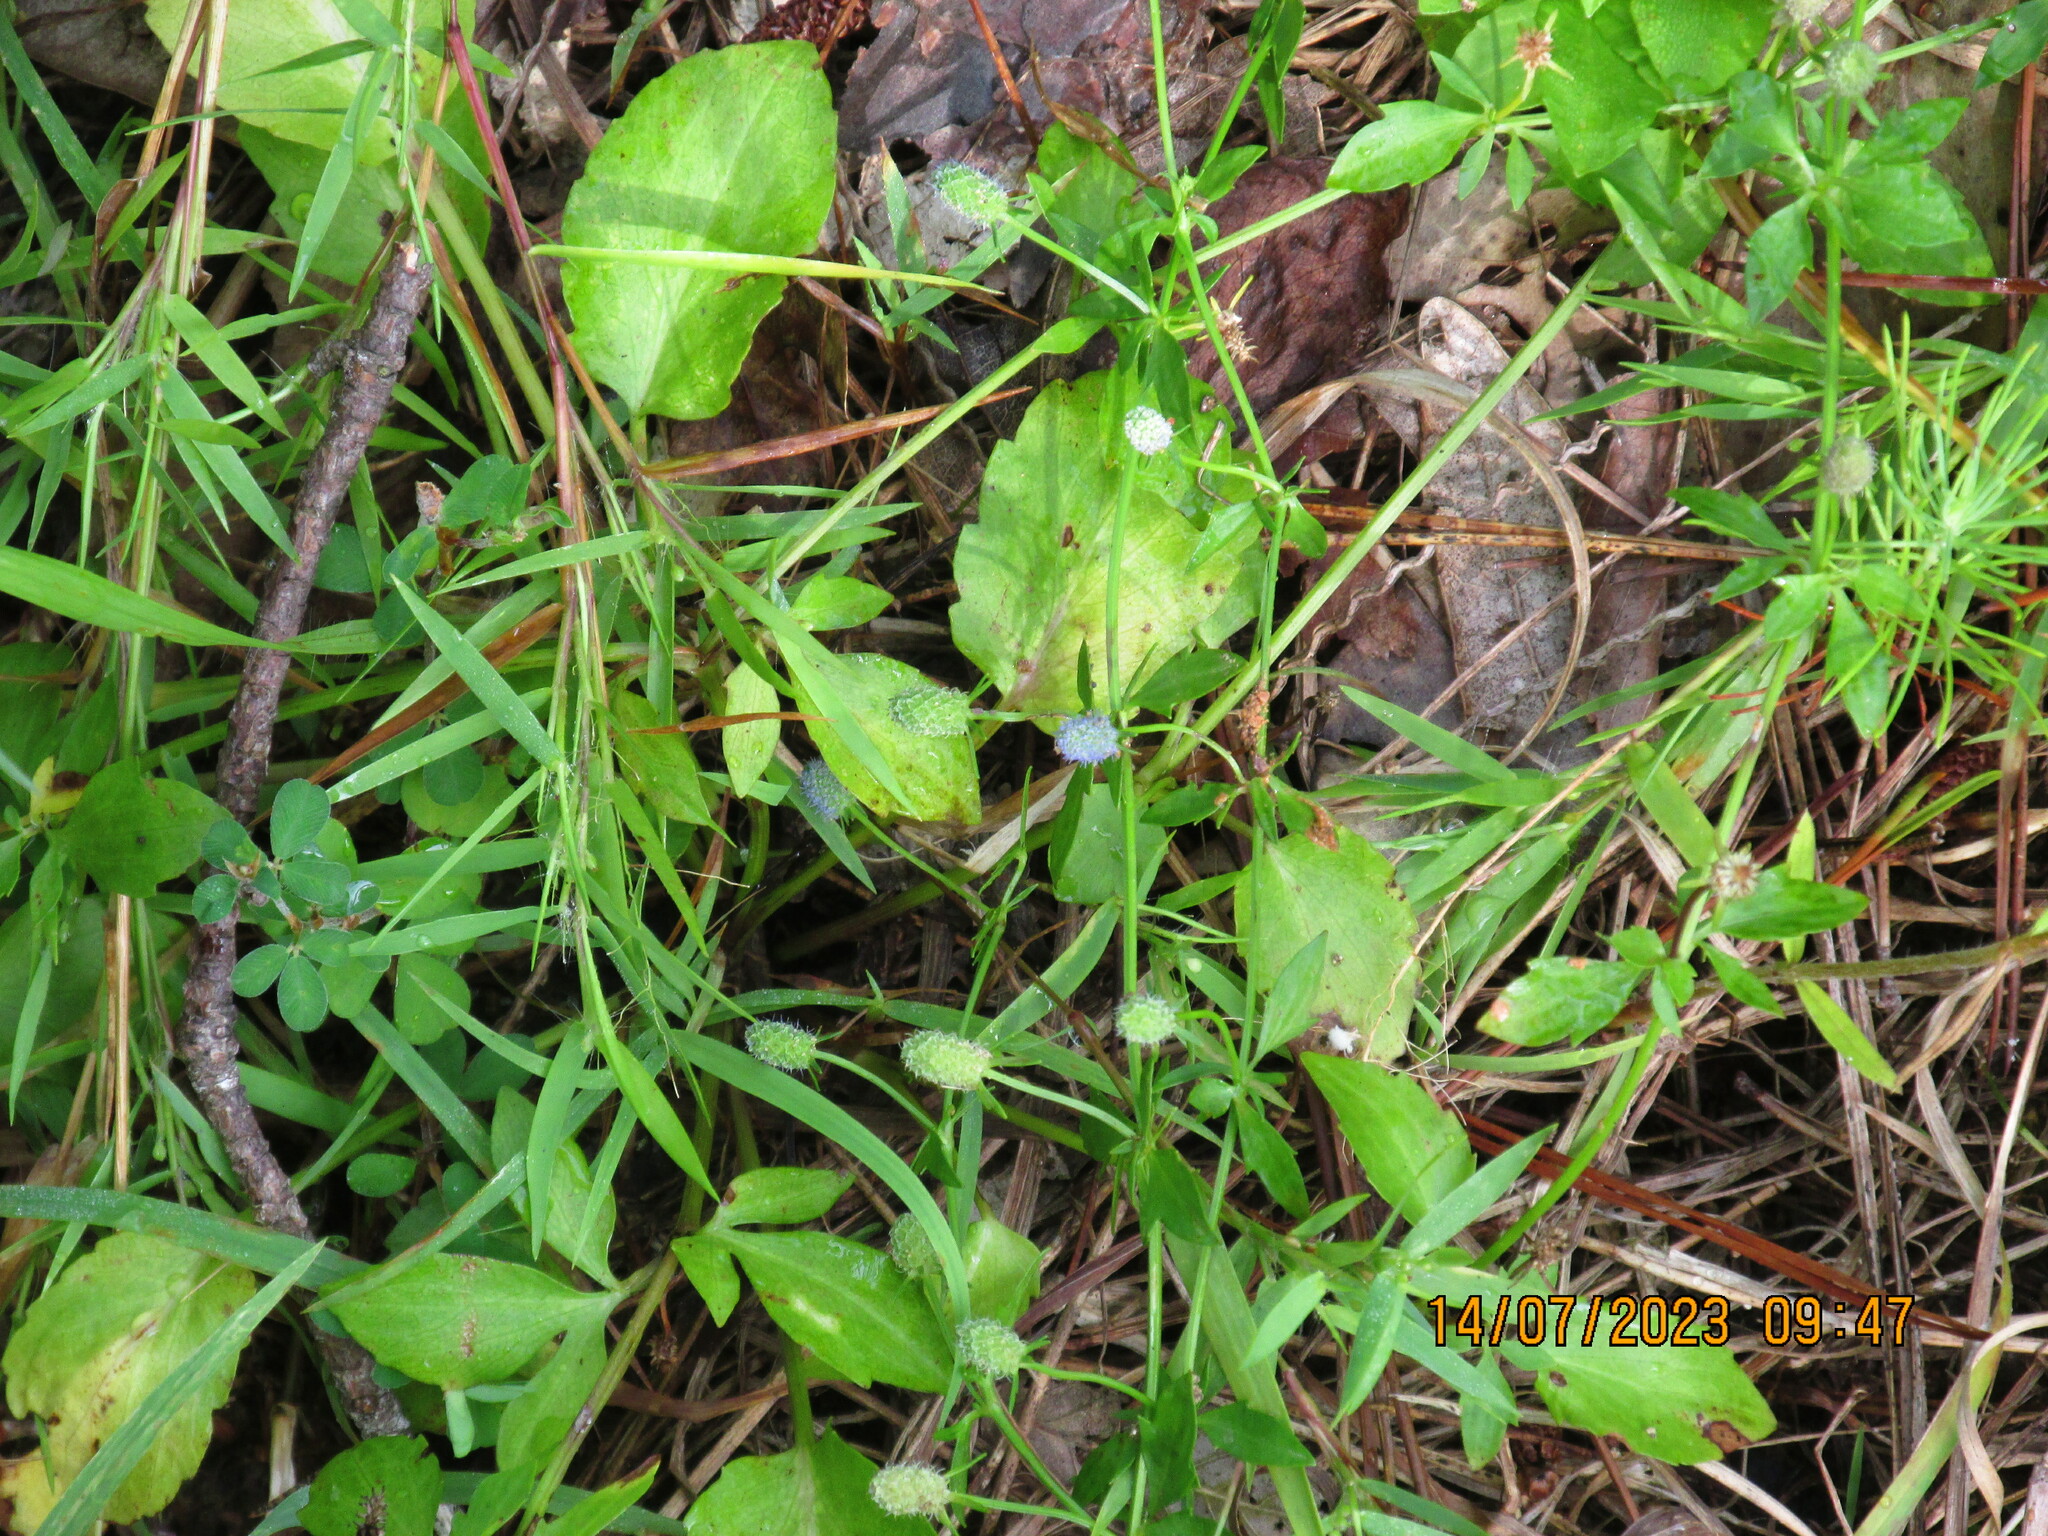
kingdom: Plantae
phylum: Tracheophyta
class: Magnoliopsida
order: Apiales
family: Apiaceae
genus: Eryngium
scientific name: Eryngium prostratum
